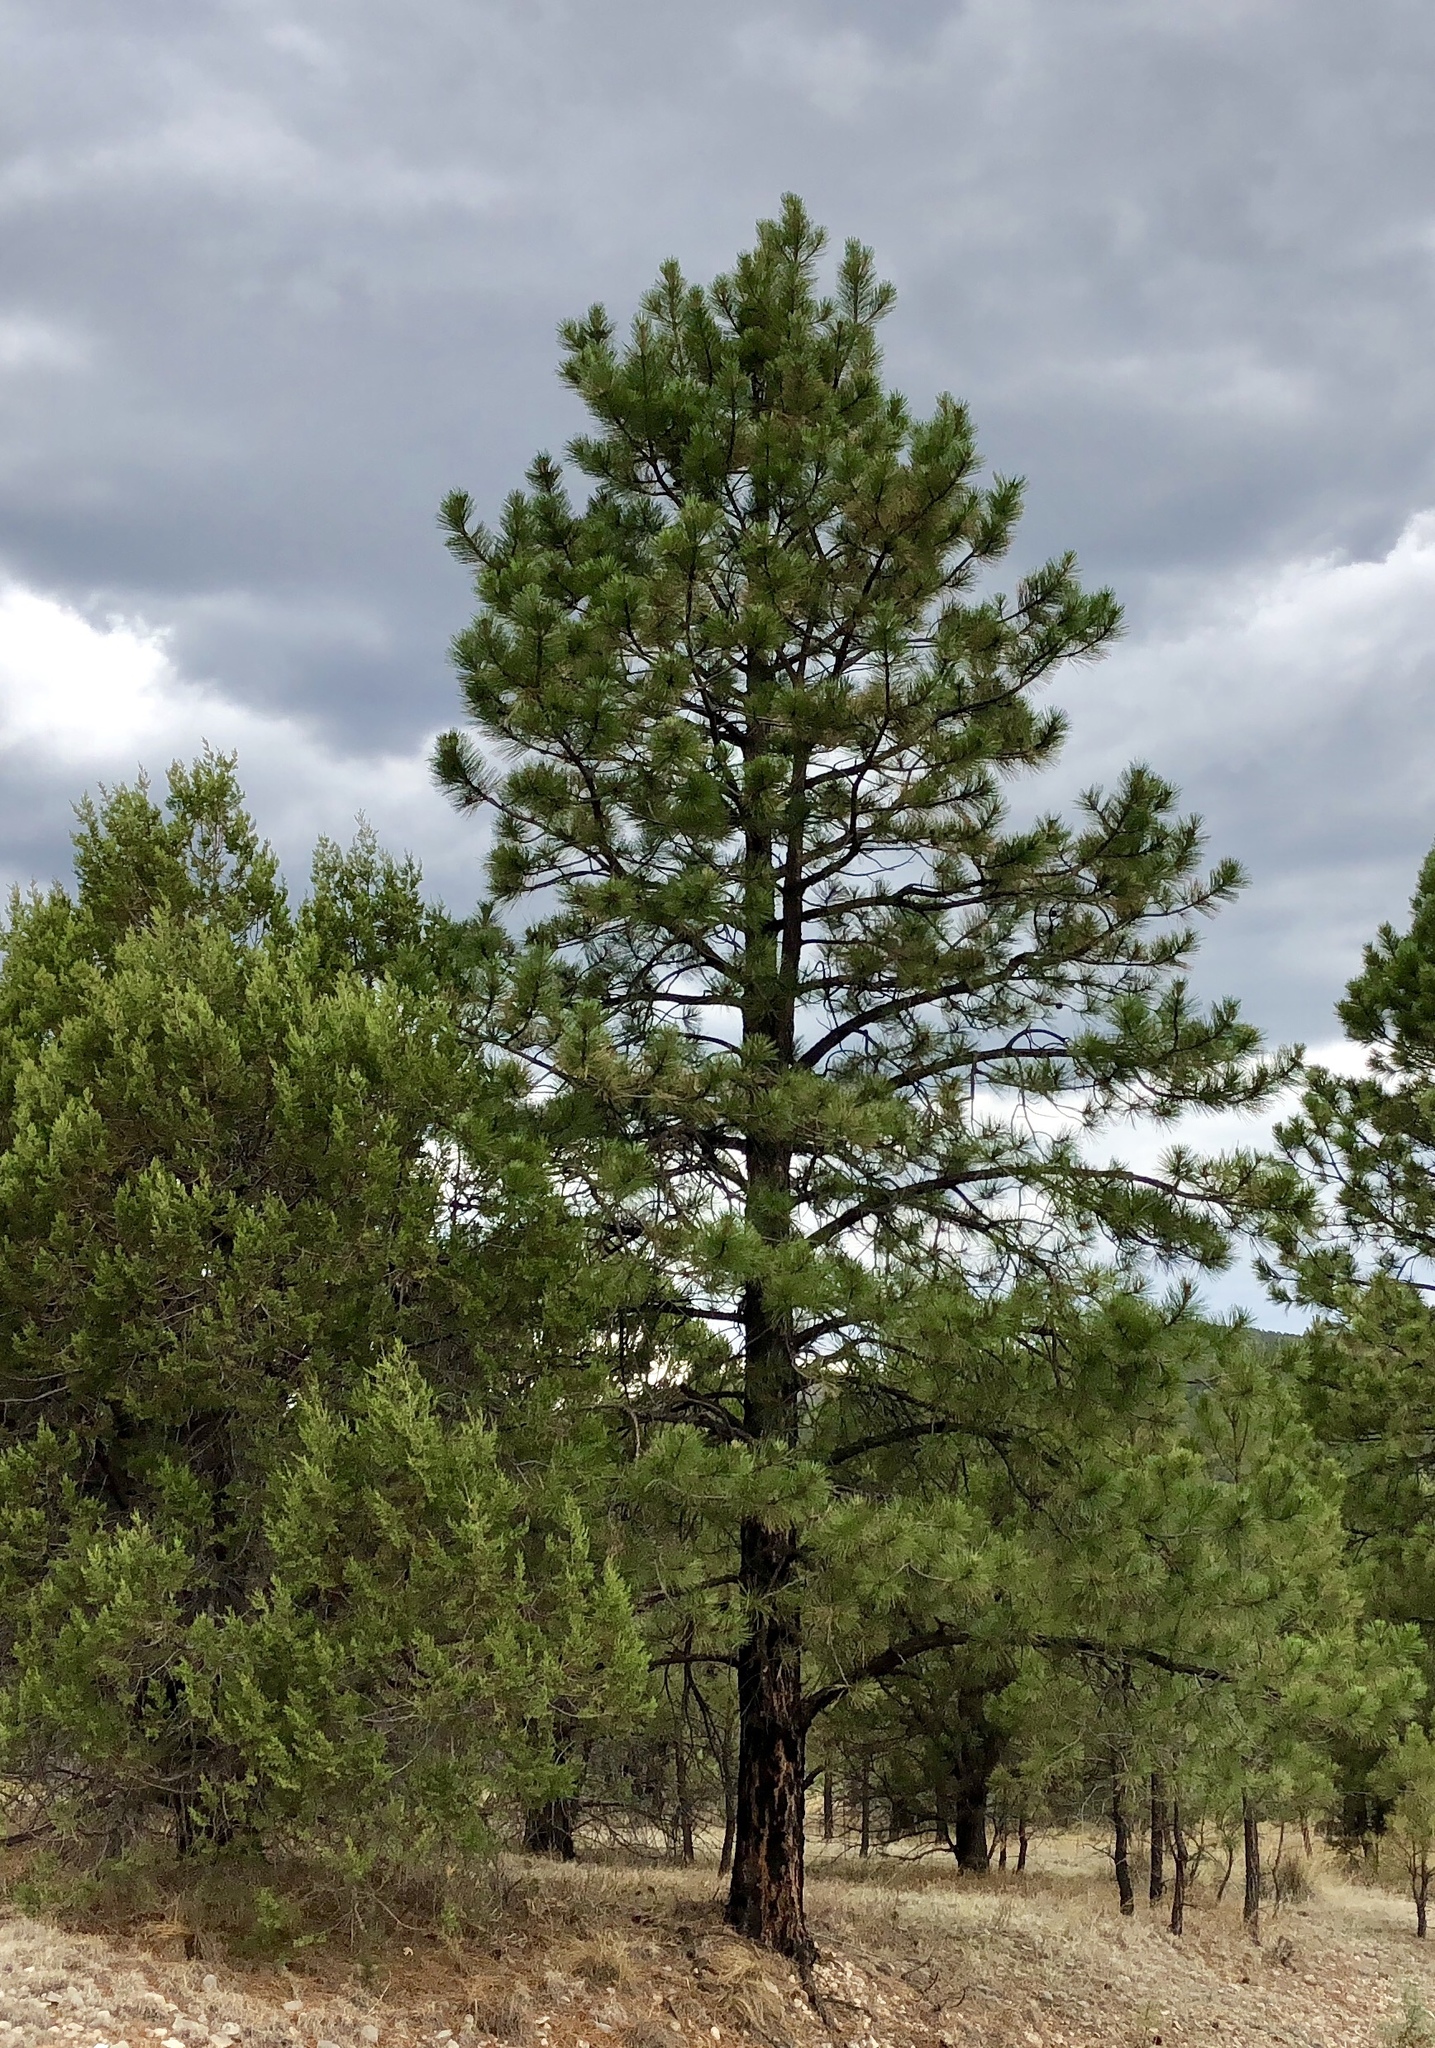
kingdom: Plantae
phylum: Tracheophyta
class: Pinopsida
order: Pinales
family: Pinaceae
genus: Pinus
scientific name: Pinus ponderosa
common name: Western yellow-pine
